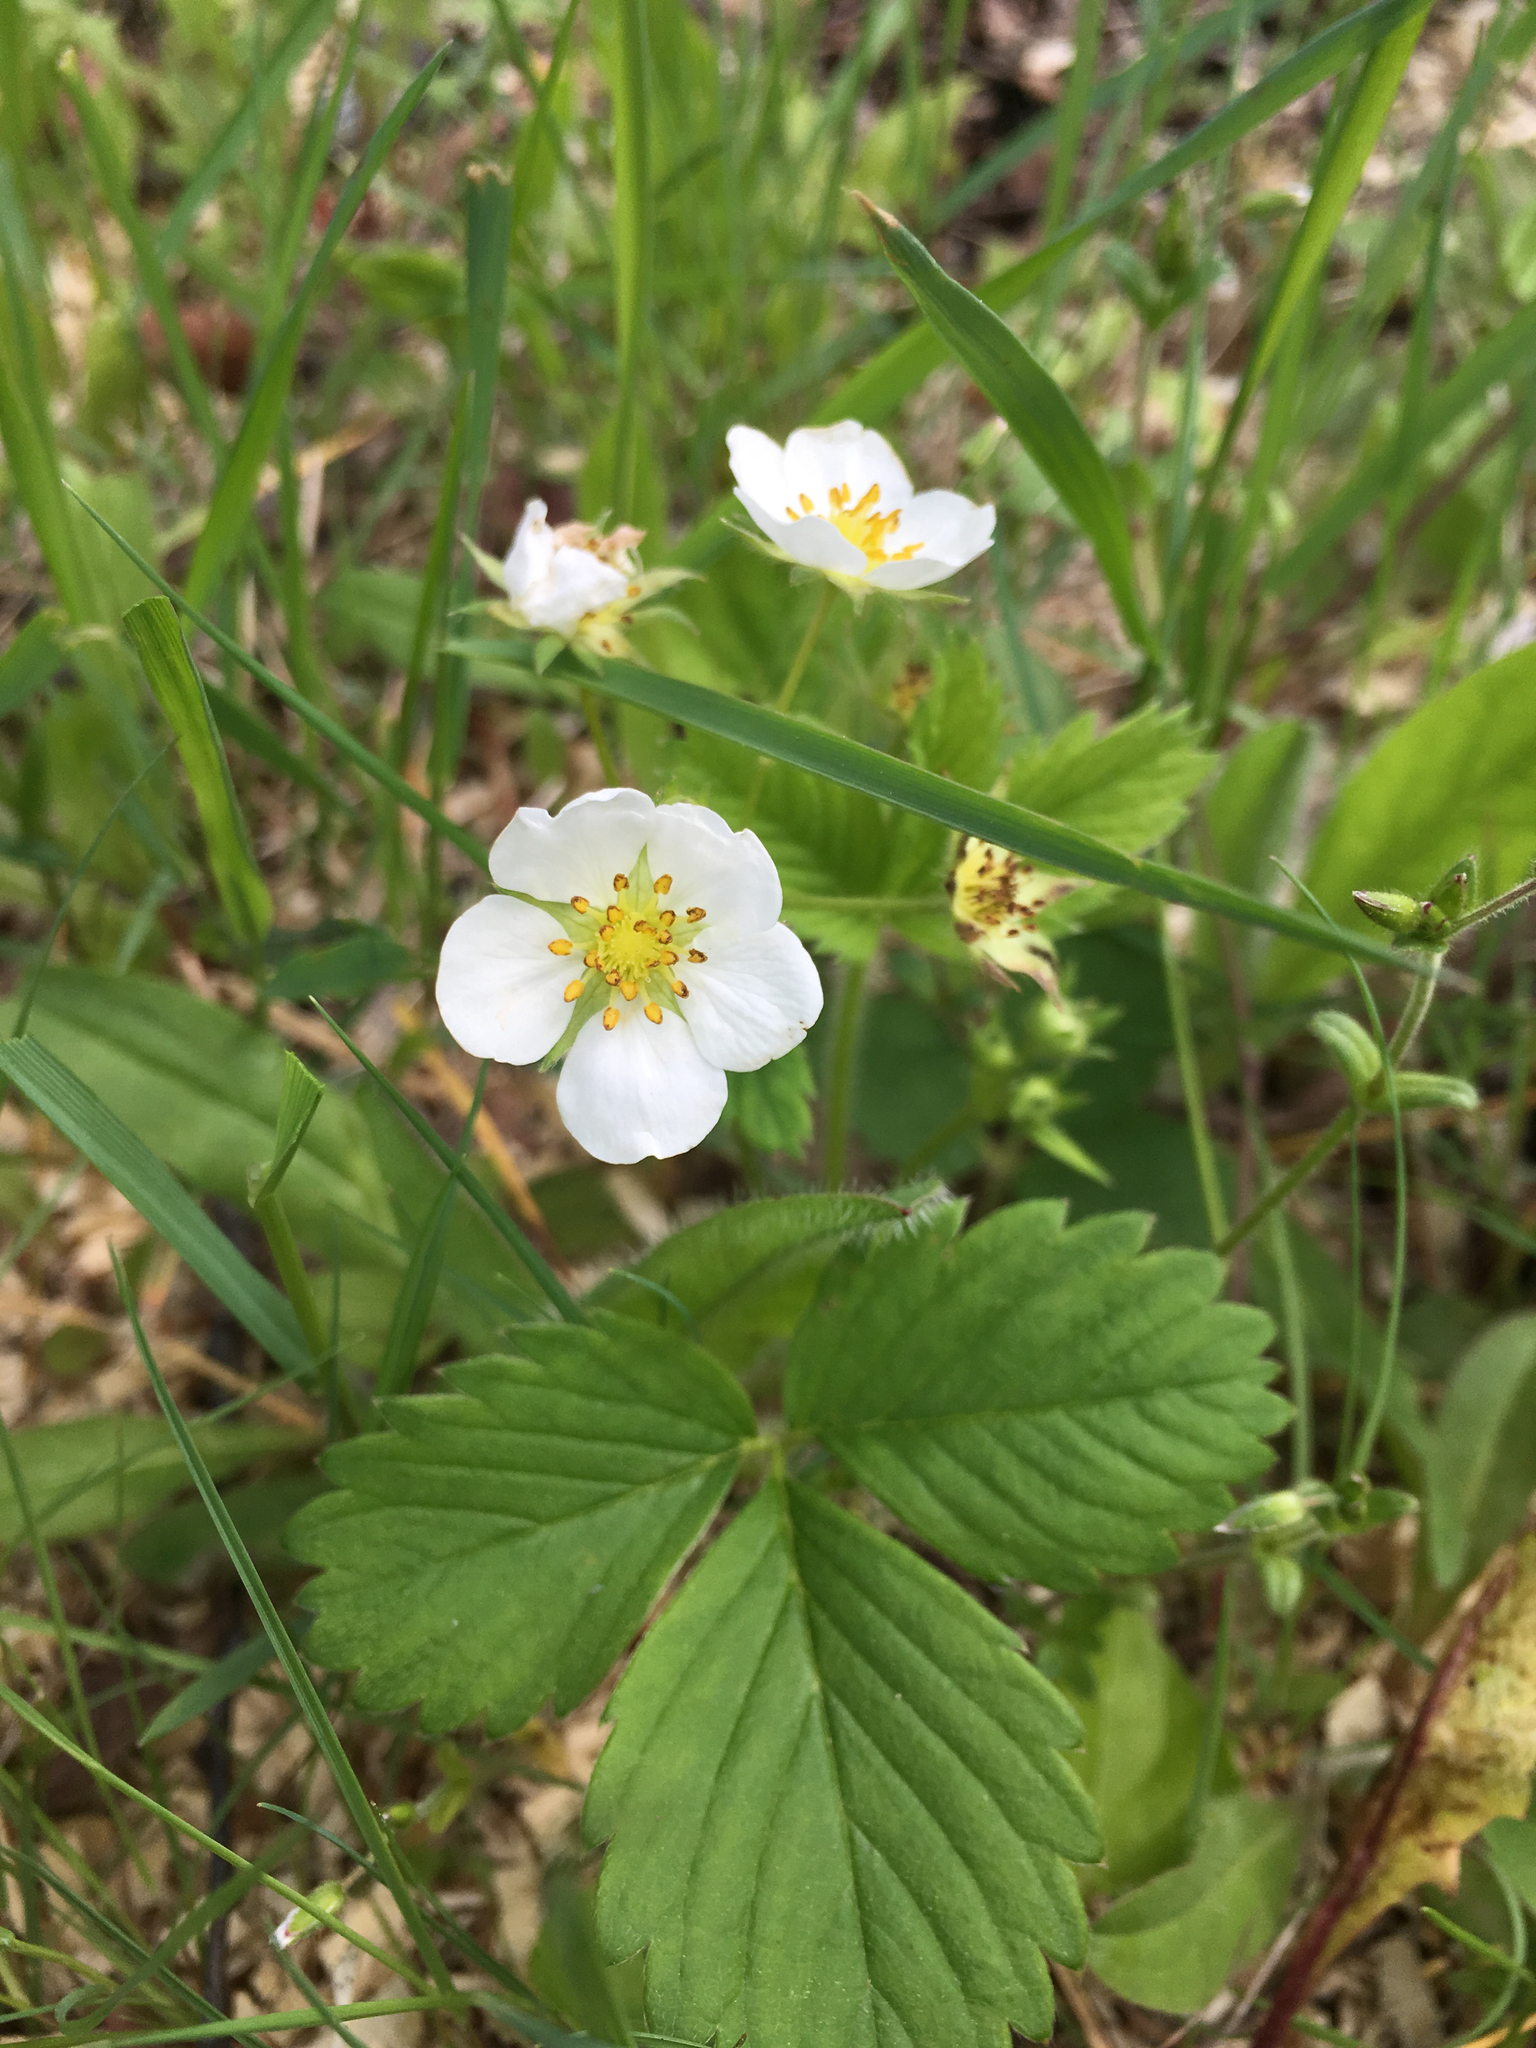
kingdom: Plantae
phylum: Tracheophyta
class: Magnoliopsida
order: Rosales
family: Rosaceae
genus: Fragaria
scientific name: Fragaria virginiana
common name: Thickleaved wild strawberry
